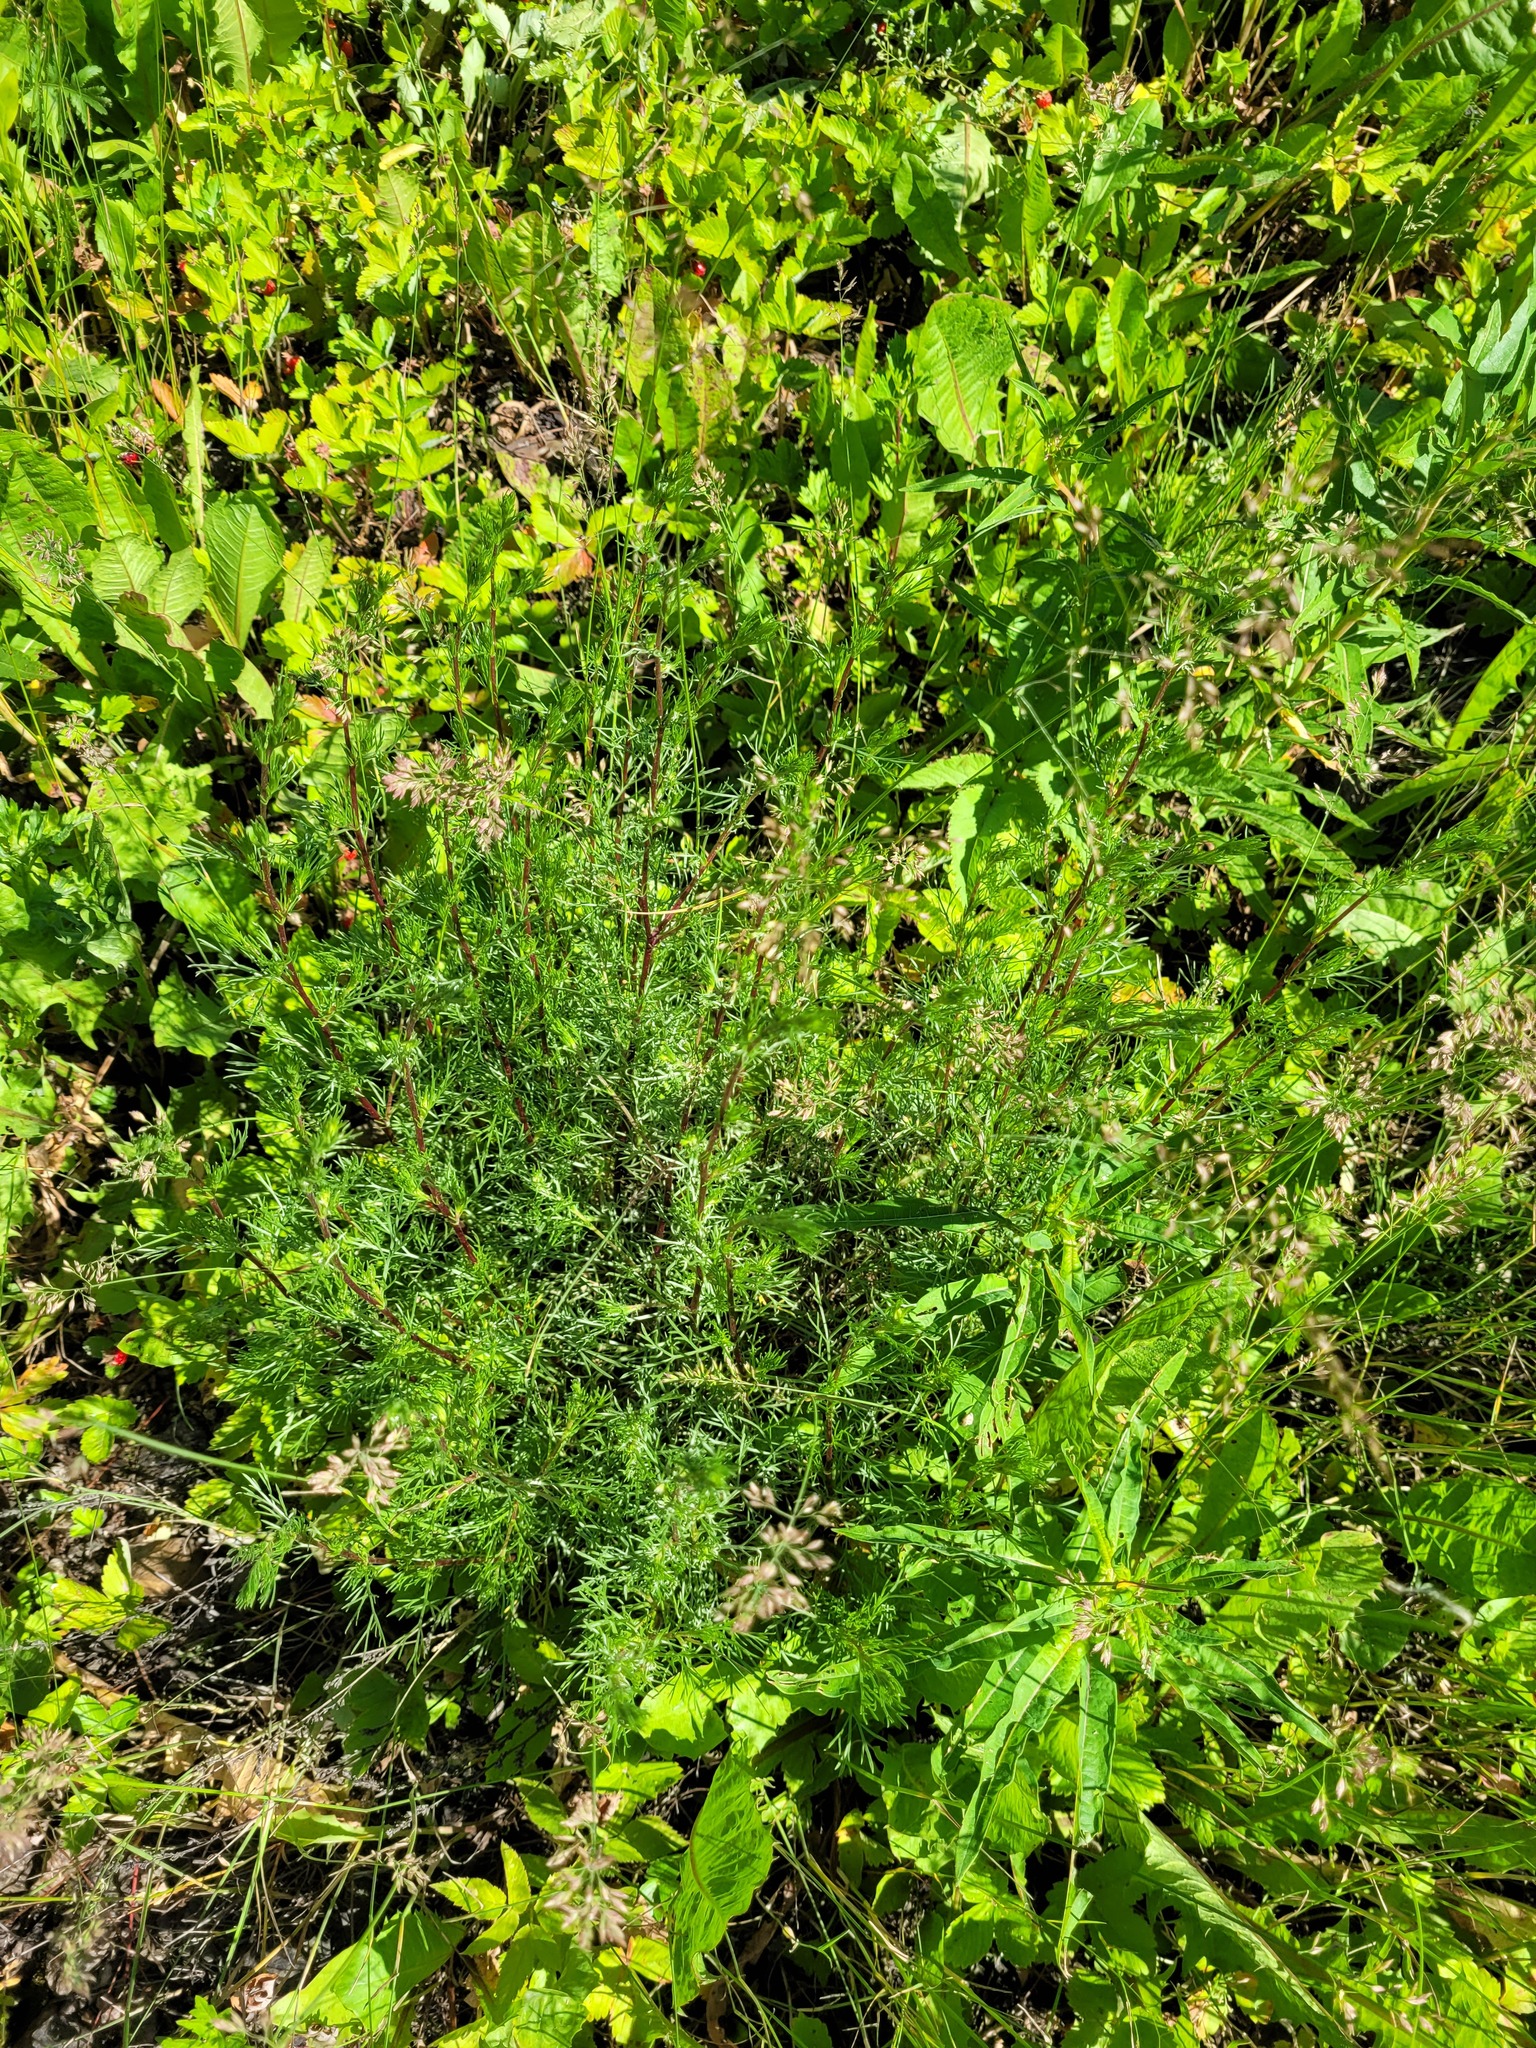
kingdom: Plantae
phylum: Tracheophyta
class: Magnoliopsida
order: Asterales
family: Asteraceae
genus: Artemisia
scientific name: Artemisia campestris
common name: Field wormwood
